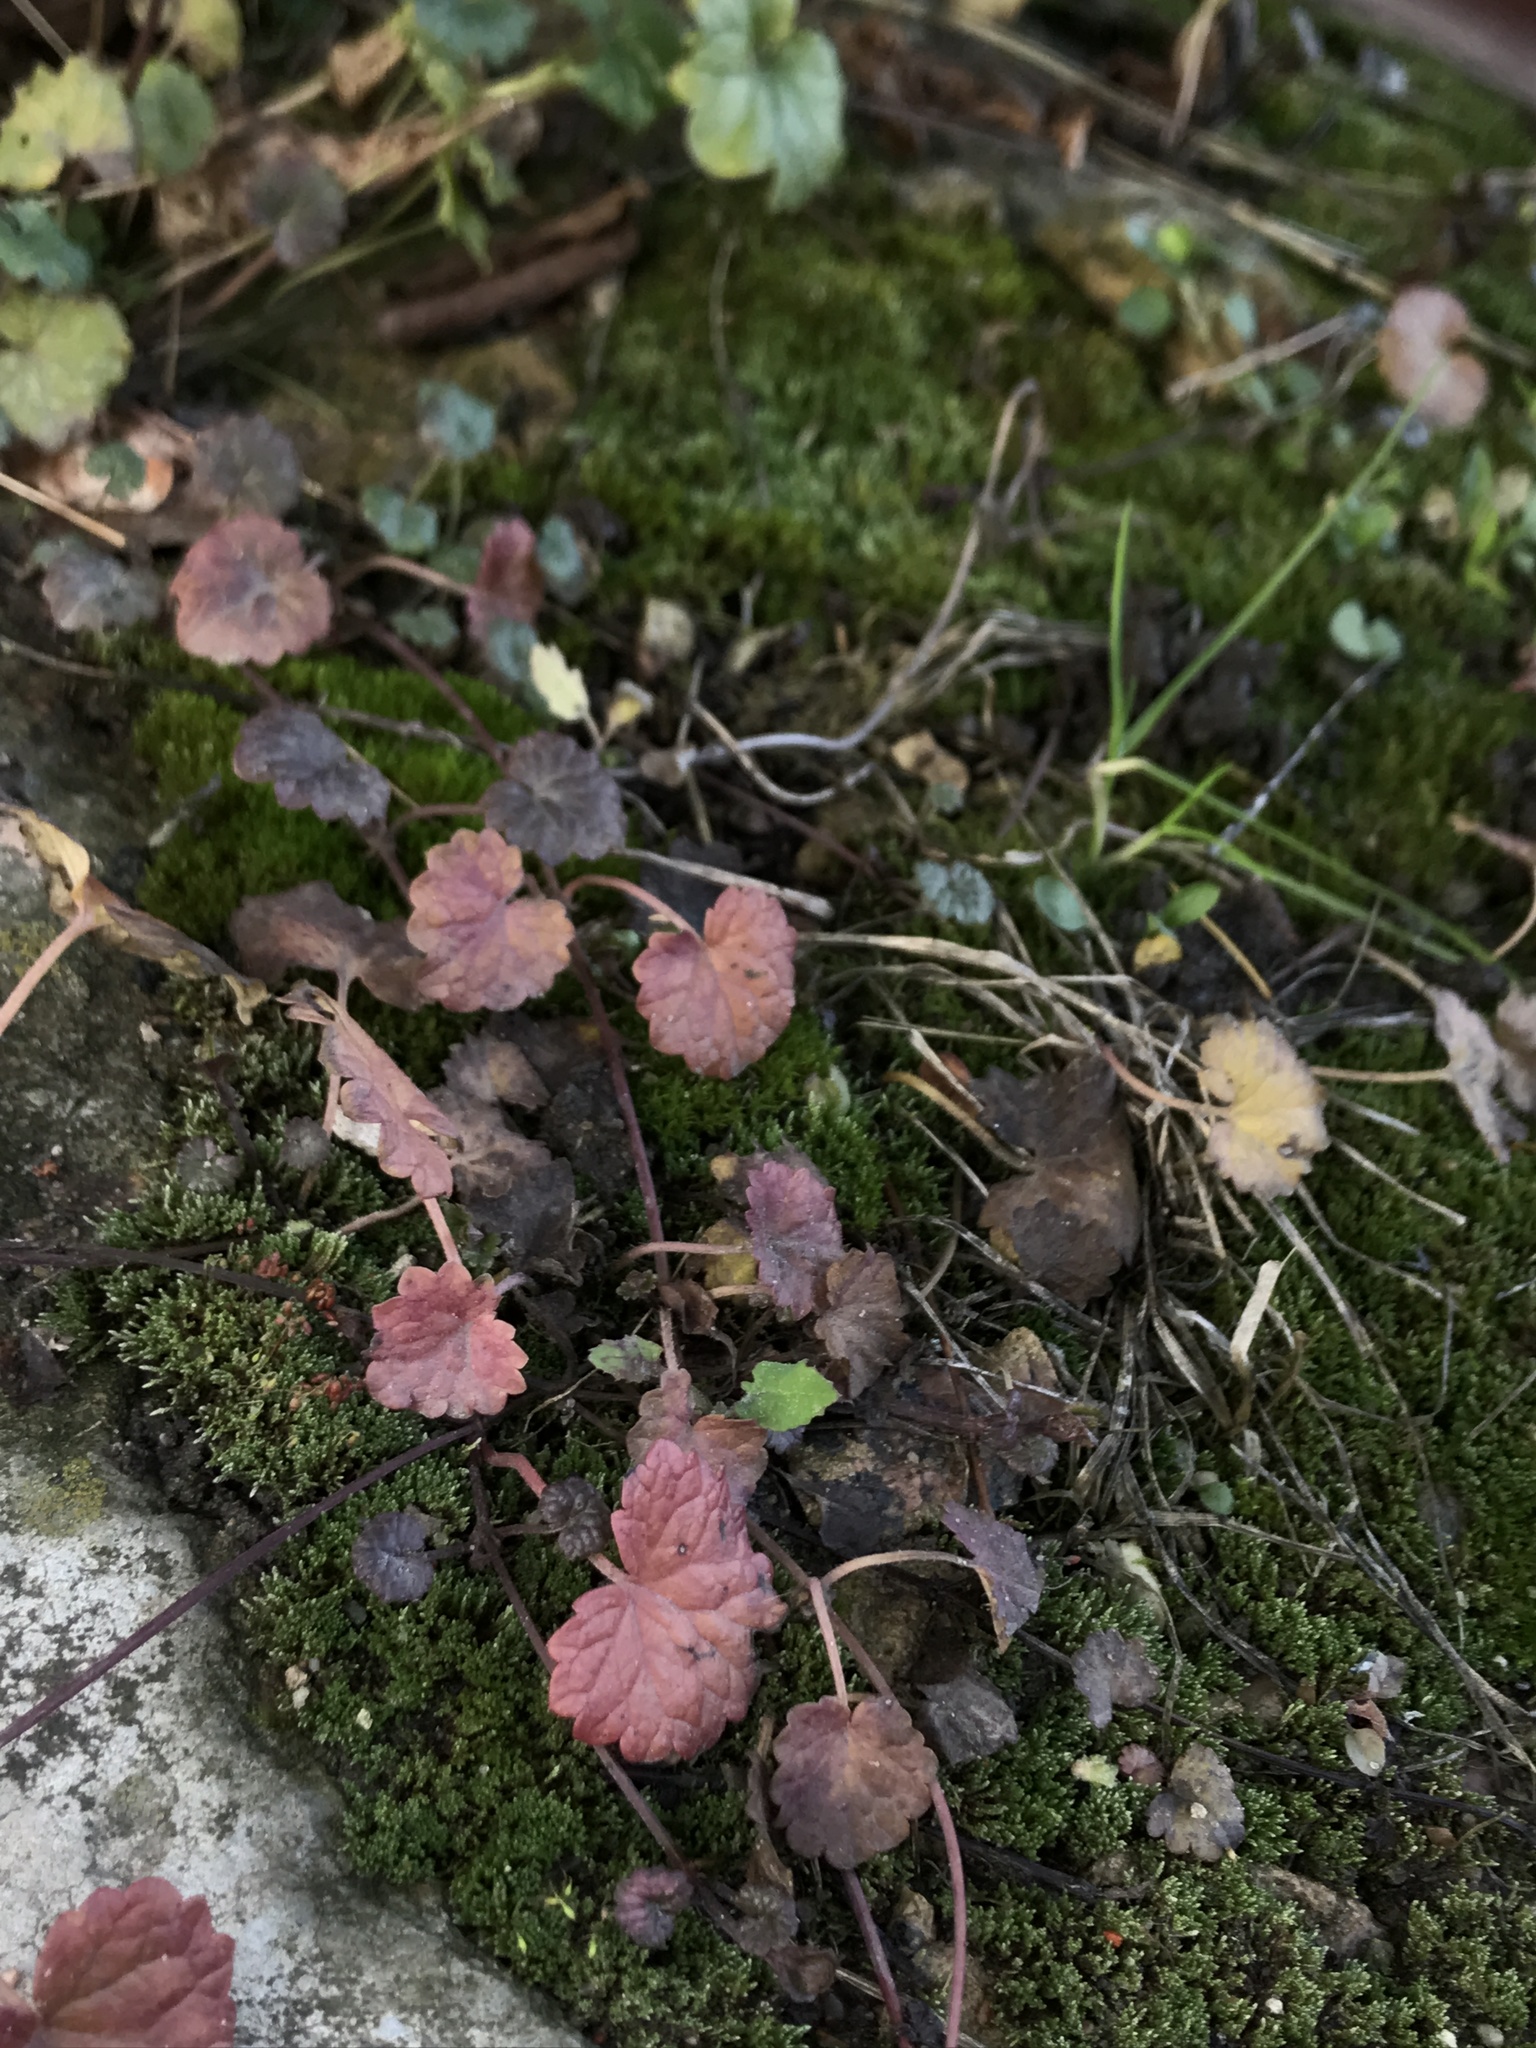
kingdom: Plantae
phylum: Tracheophyta
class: Magnoliopsida
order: Lamiales
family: Lamiaceae
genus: Glechoma
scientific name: Glechoma hederacea
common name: Ground ivy
